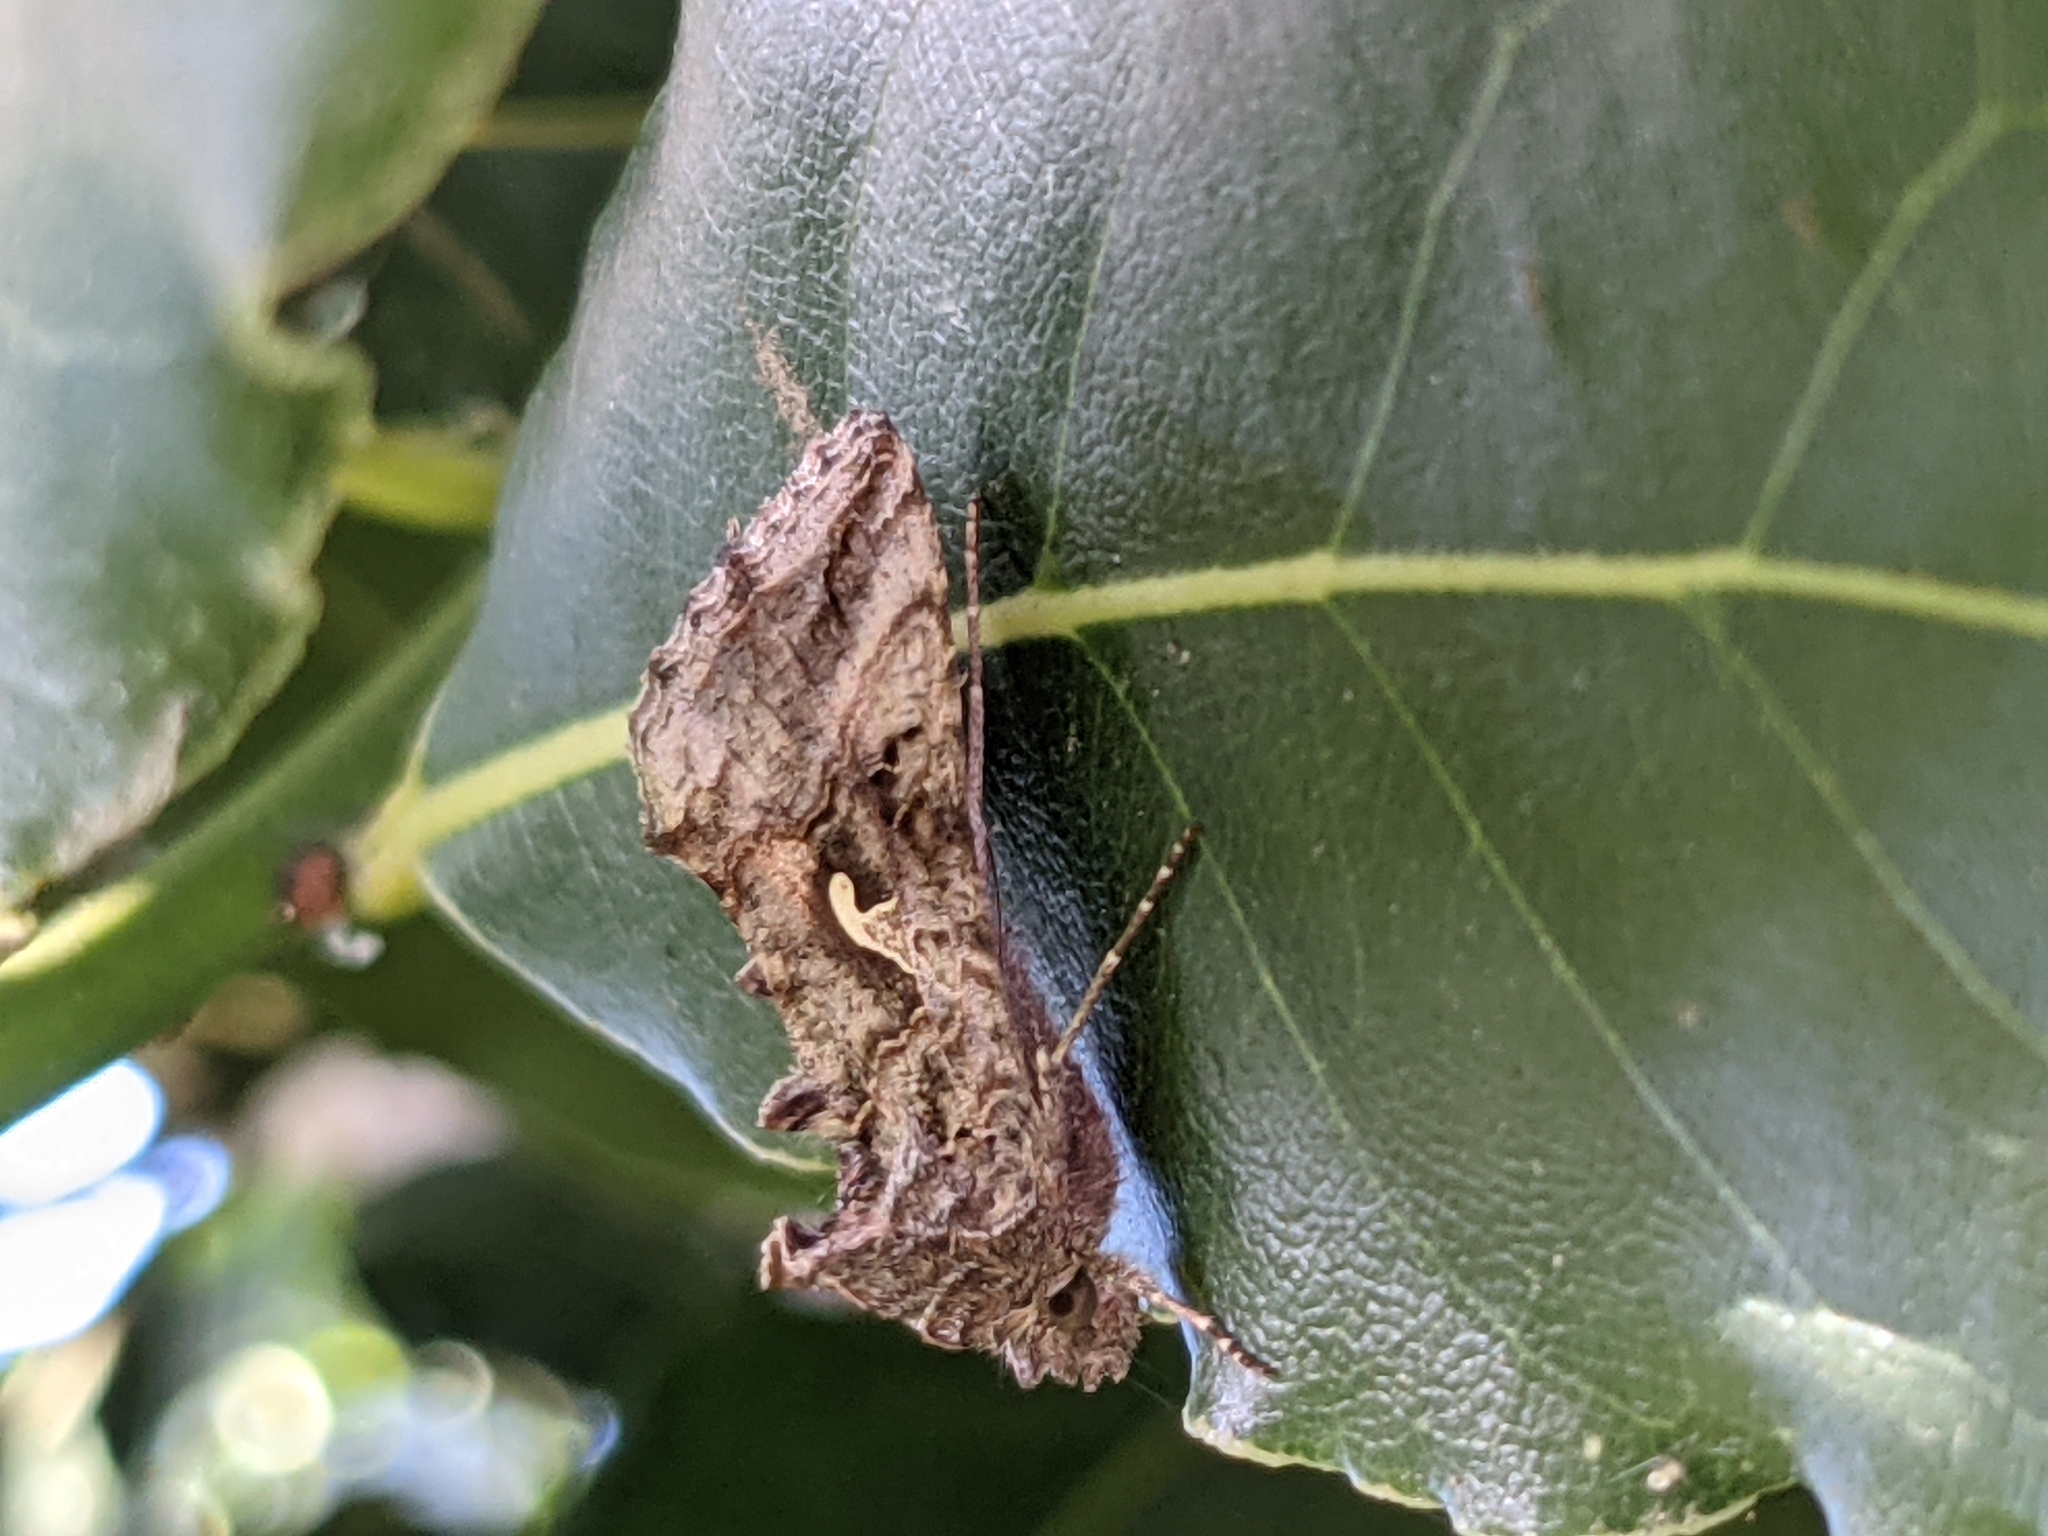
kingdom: Animalia
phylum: Arthropoda
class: Insecta
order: Lepidoptera
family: Noctuidae
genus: Autographa
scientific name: Autographa gamma
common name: Silver y
